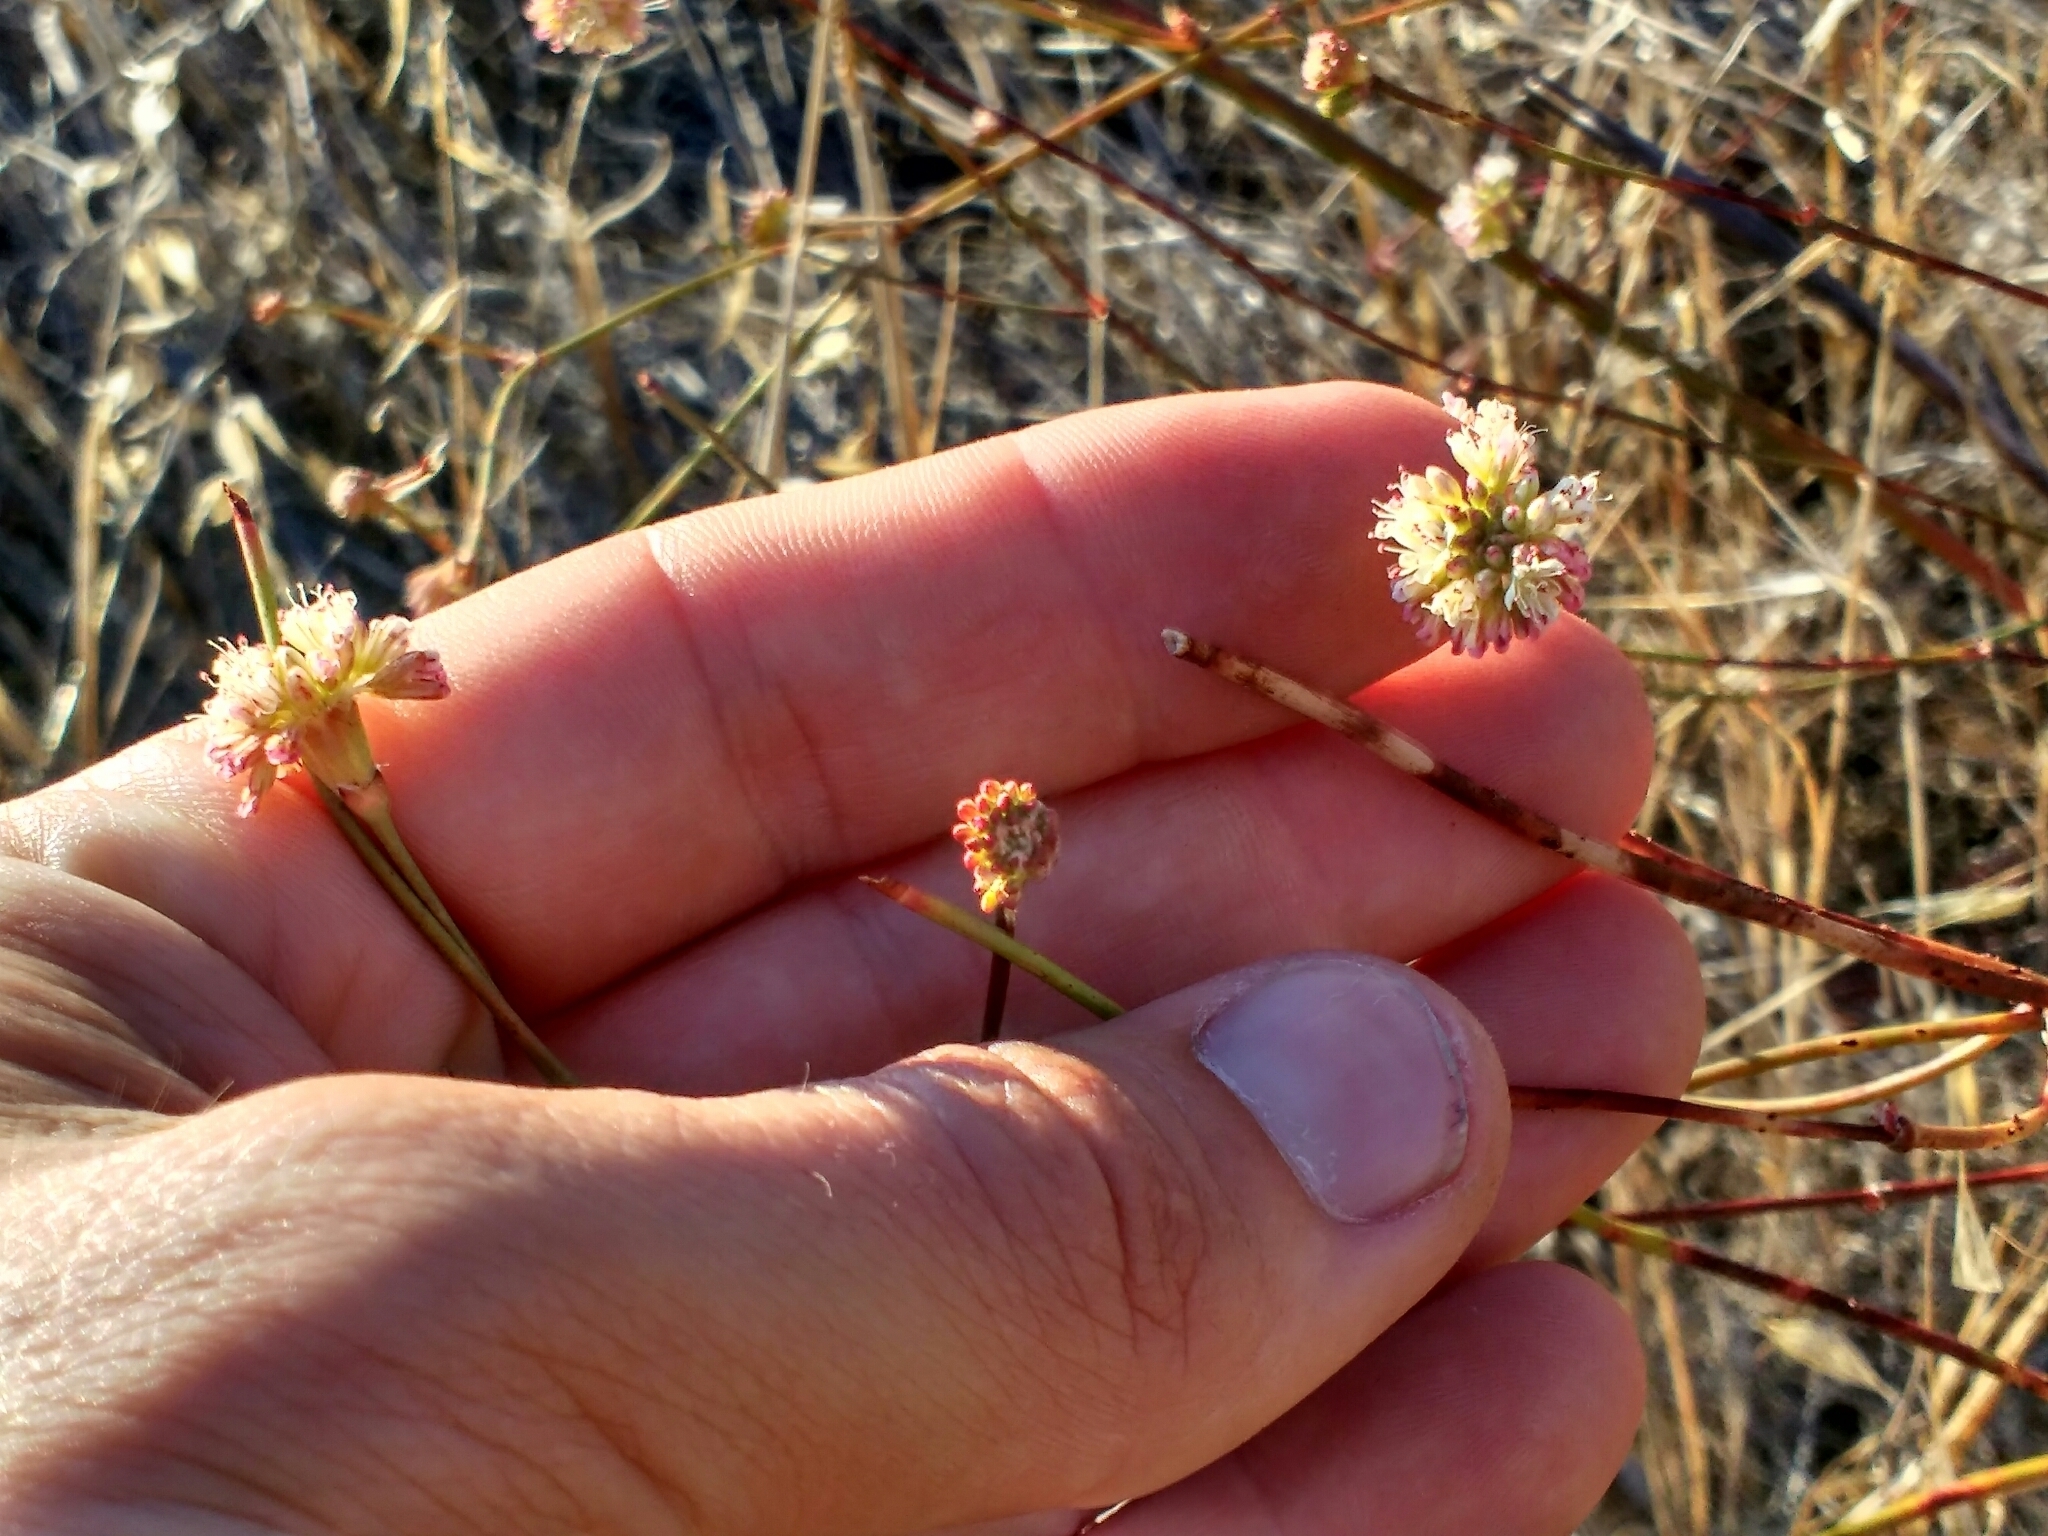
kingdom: Plantae
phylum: Tracheophyta
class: Magnoliopsida
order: Caryophyllales
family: Polygonaceae
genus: Eriogonum
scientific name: Eriogonum nudum
